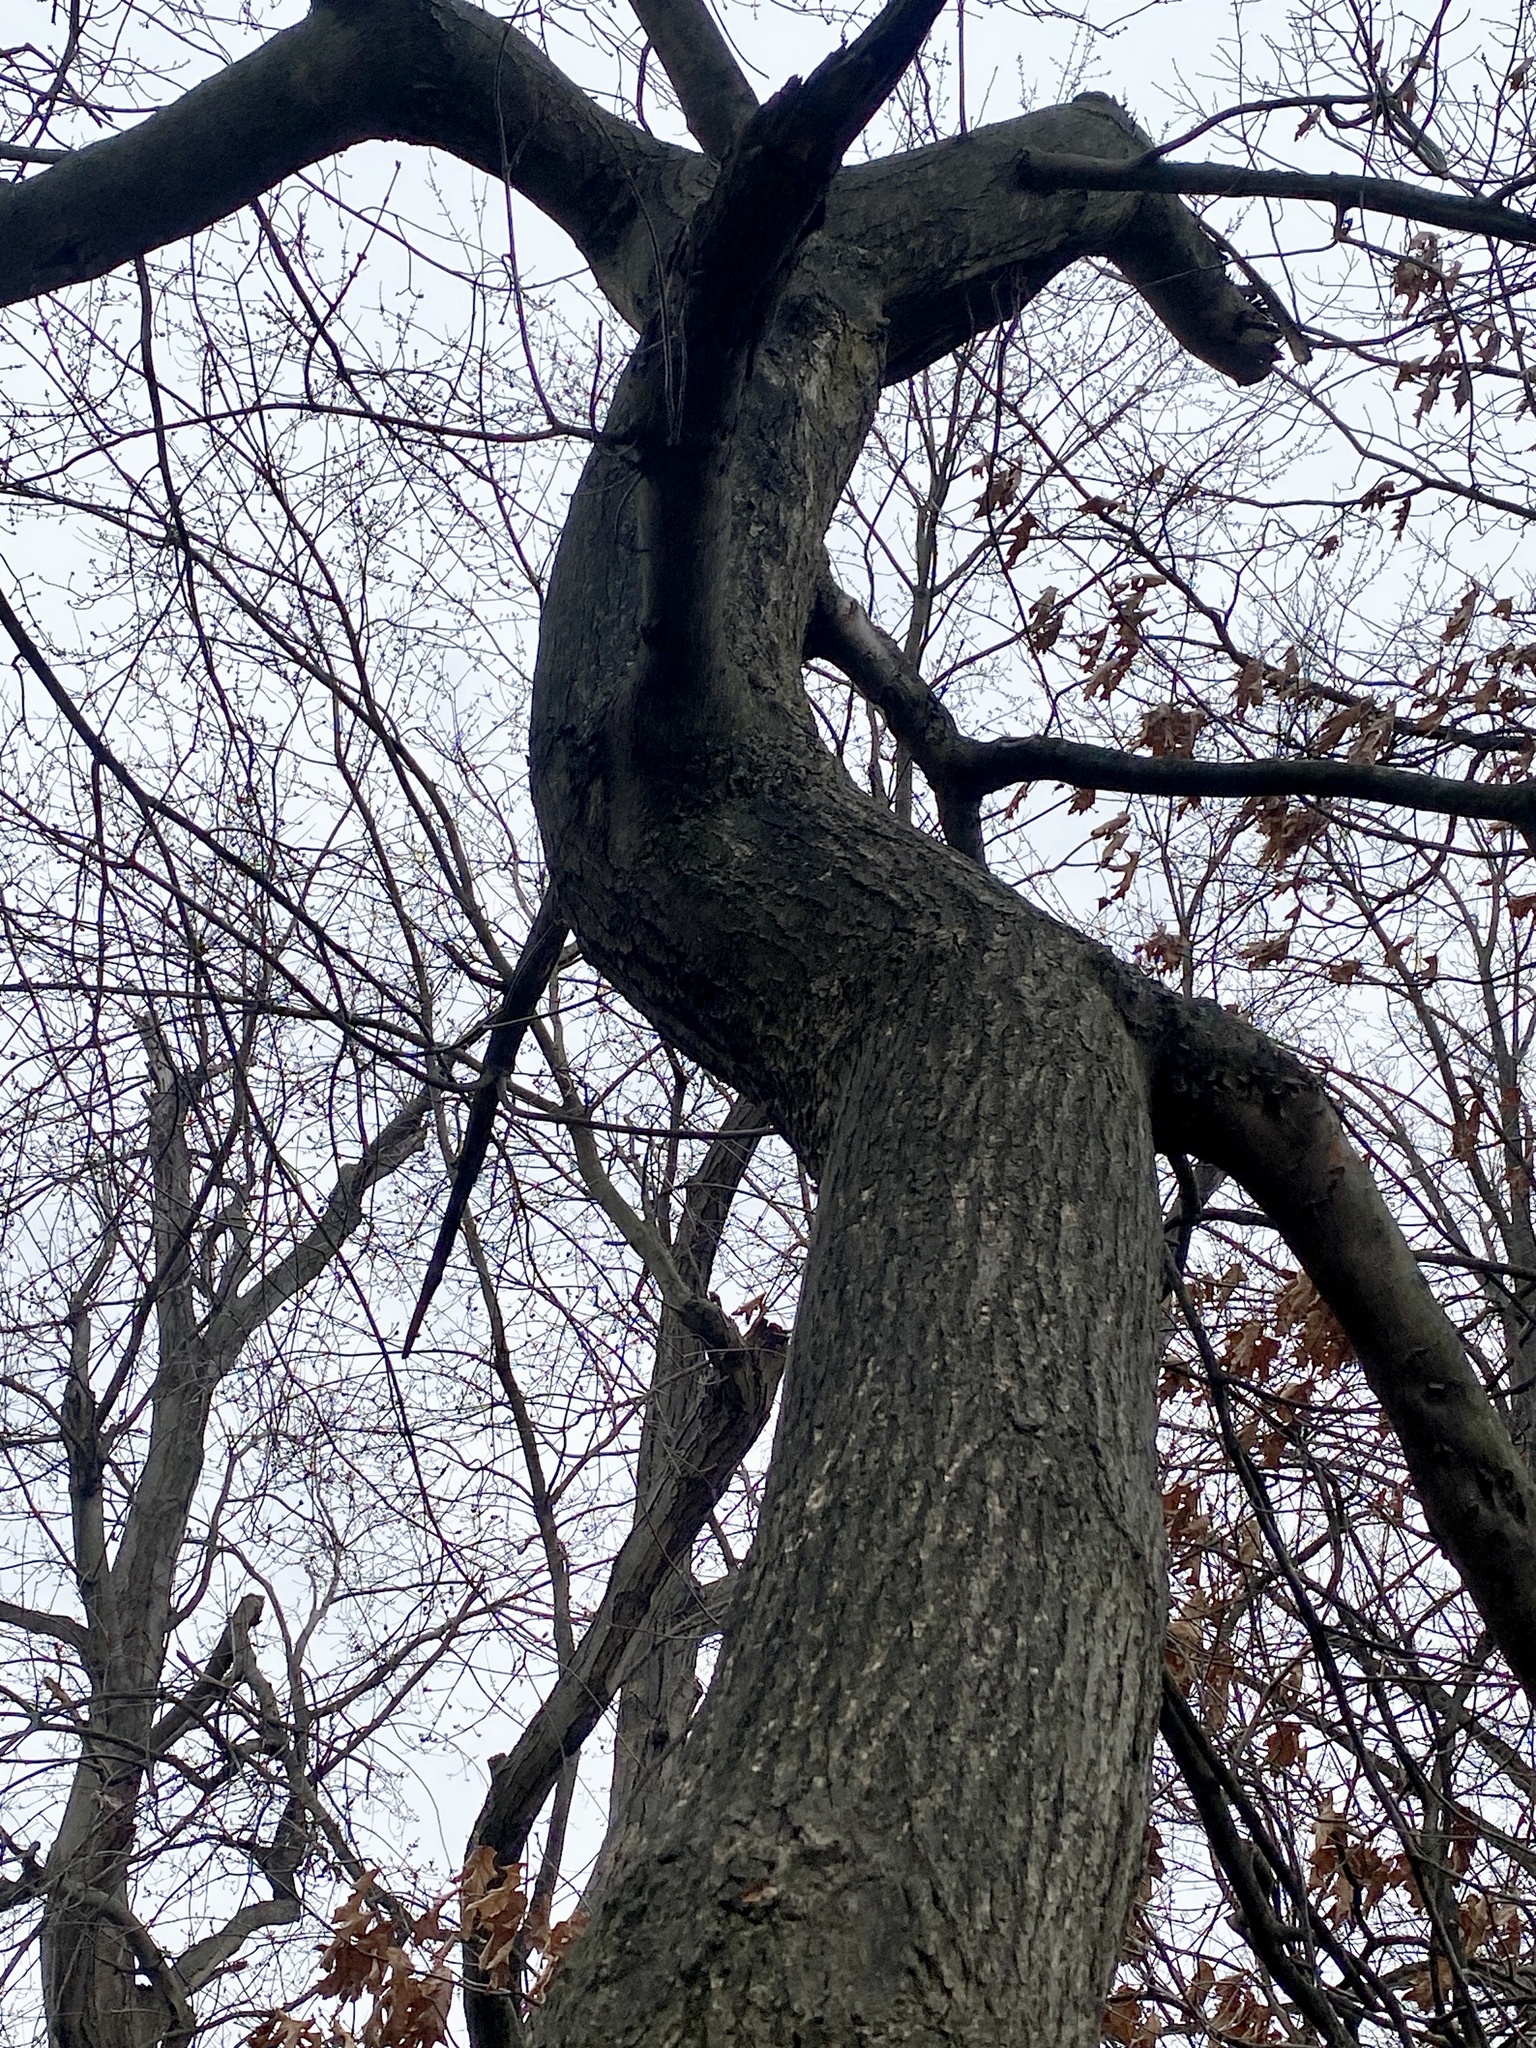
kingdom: Plantae
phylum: Tracheophyta
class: Magnoliopsida
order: Sapindales
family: Sapindaceae
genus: Acer
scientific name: Acer rubrum
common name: Red maple
